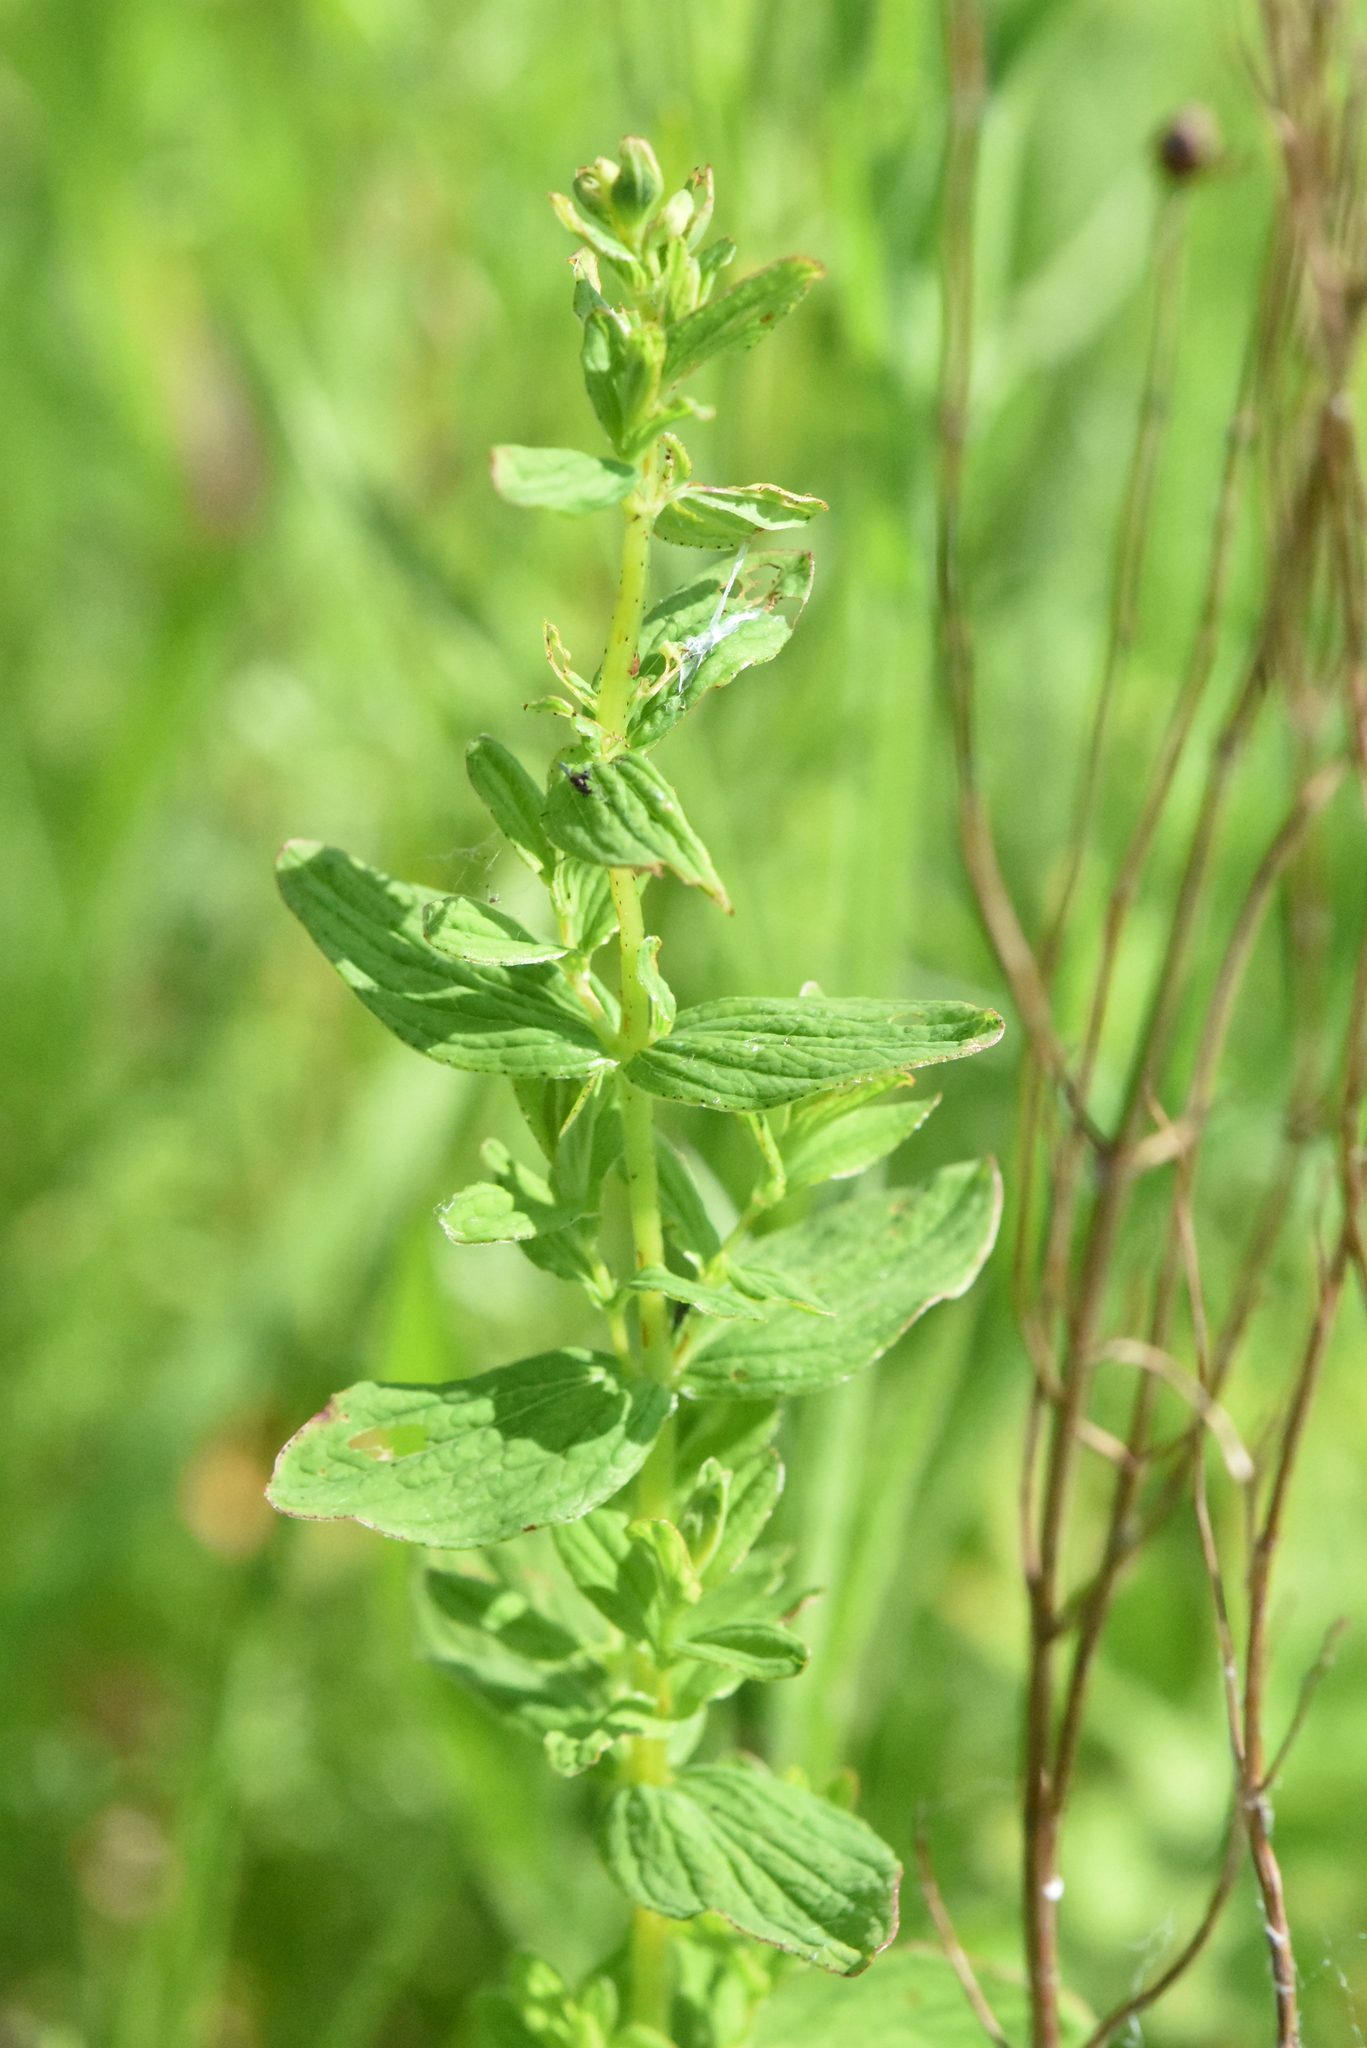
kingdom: Plantae
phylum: Tracheophyta
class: Magnoliopsida
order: Malpighiales
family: Hypericaceae
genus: Hypericum
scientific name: Hypericum maculatum
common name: Imperforate st. john's-wort
